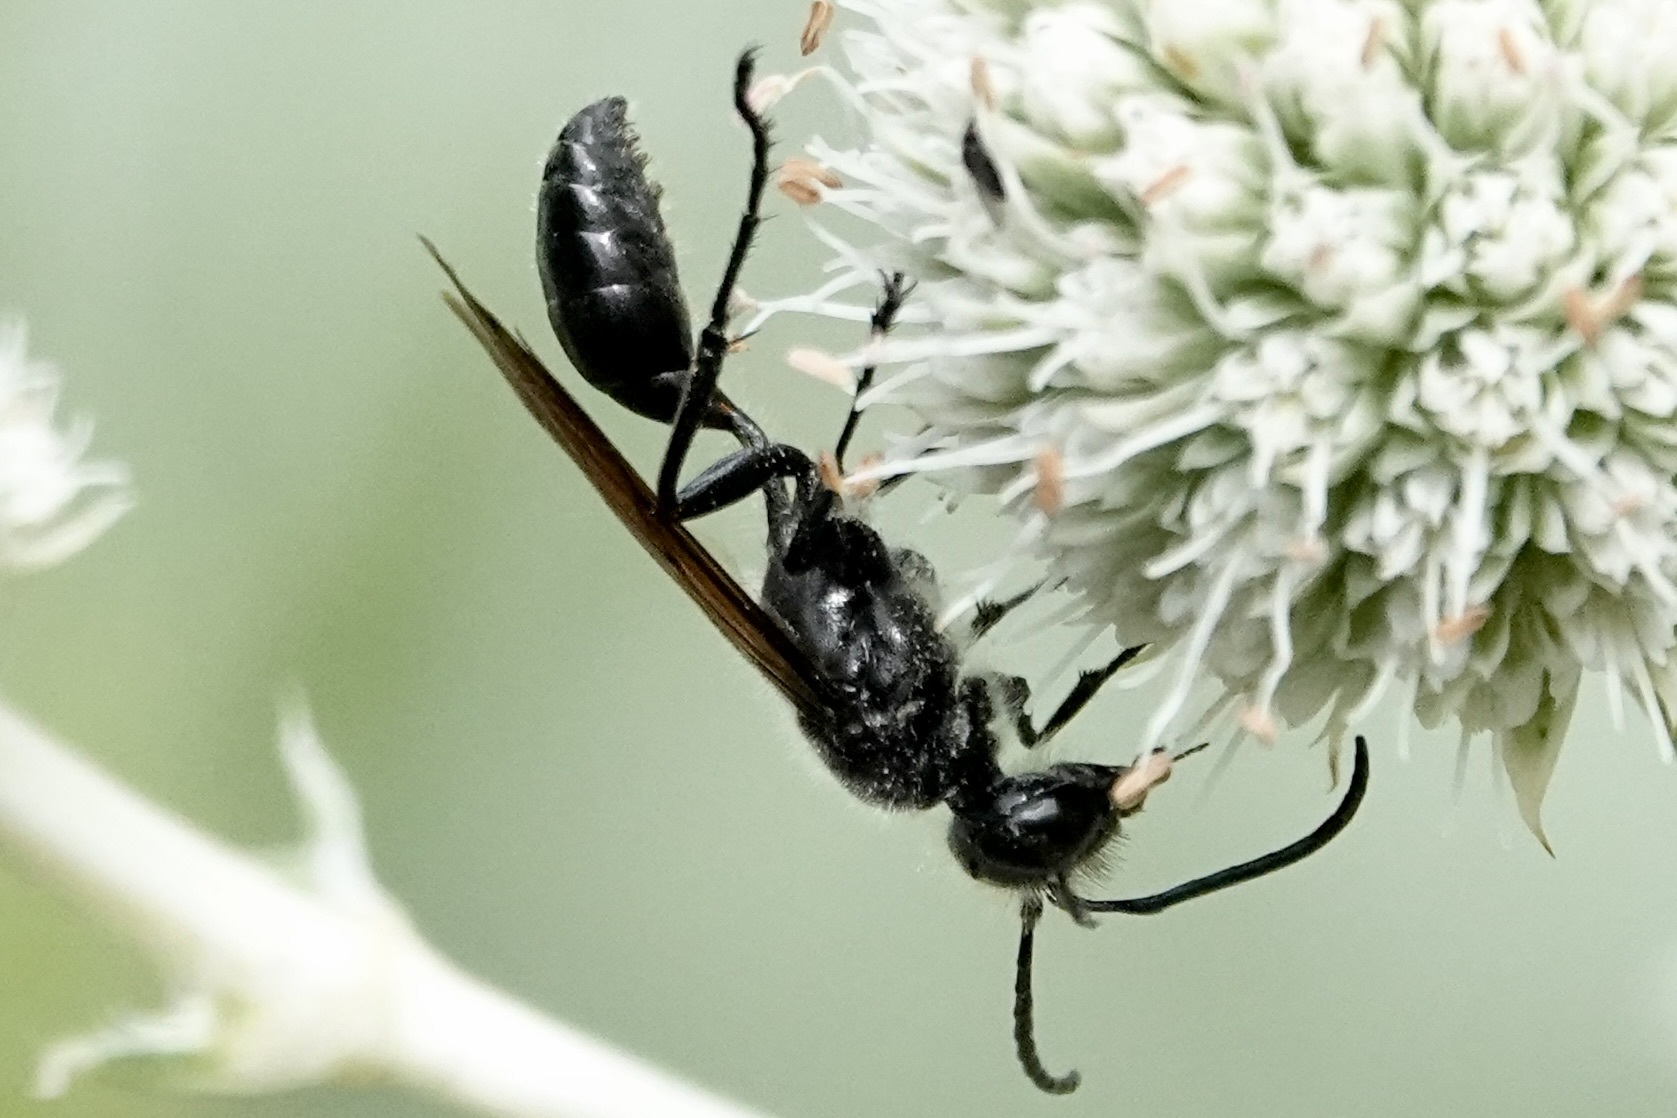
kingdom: Animalia
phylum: Arthropoda
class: Insecta
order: Hymenoptera
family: Sphecidae
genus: Isodontia
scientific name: Isodontia mexicana
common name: Mud dauber
